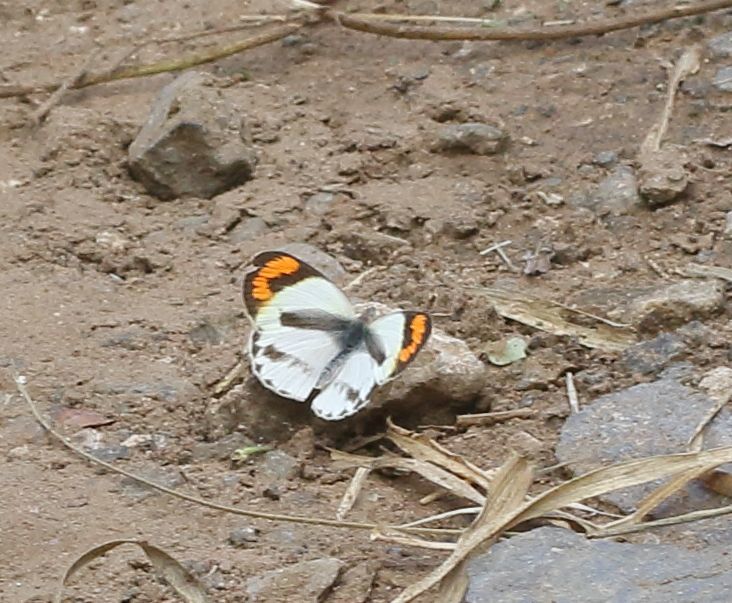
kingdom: Animalia
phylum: Arthropoda
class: Insecta
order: Lepidoptera
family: Pieridae
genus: Colotis
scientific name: Colotis euippe
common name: Round-winged orange tip
